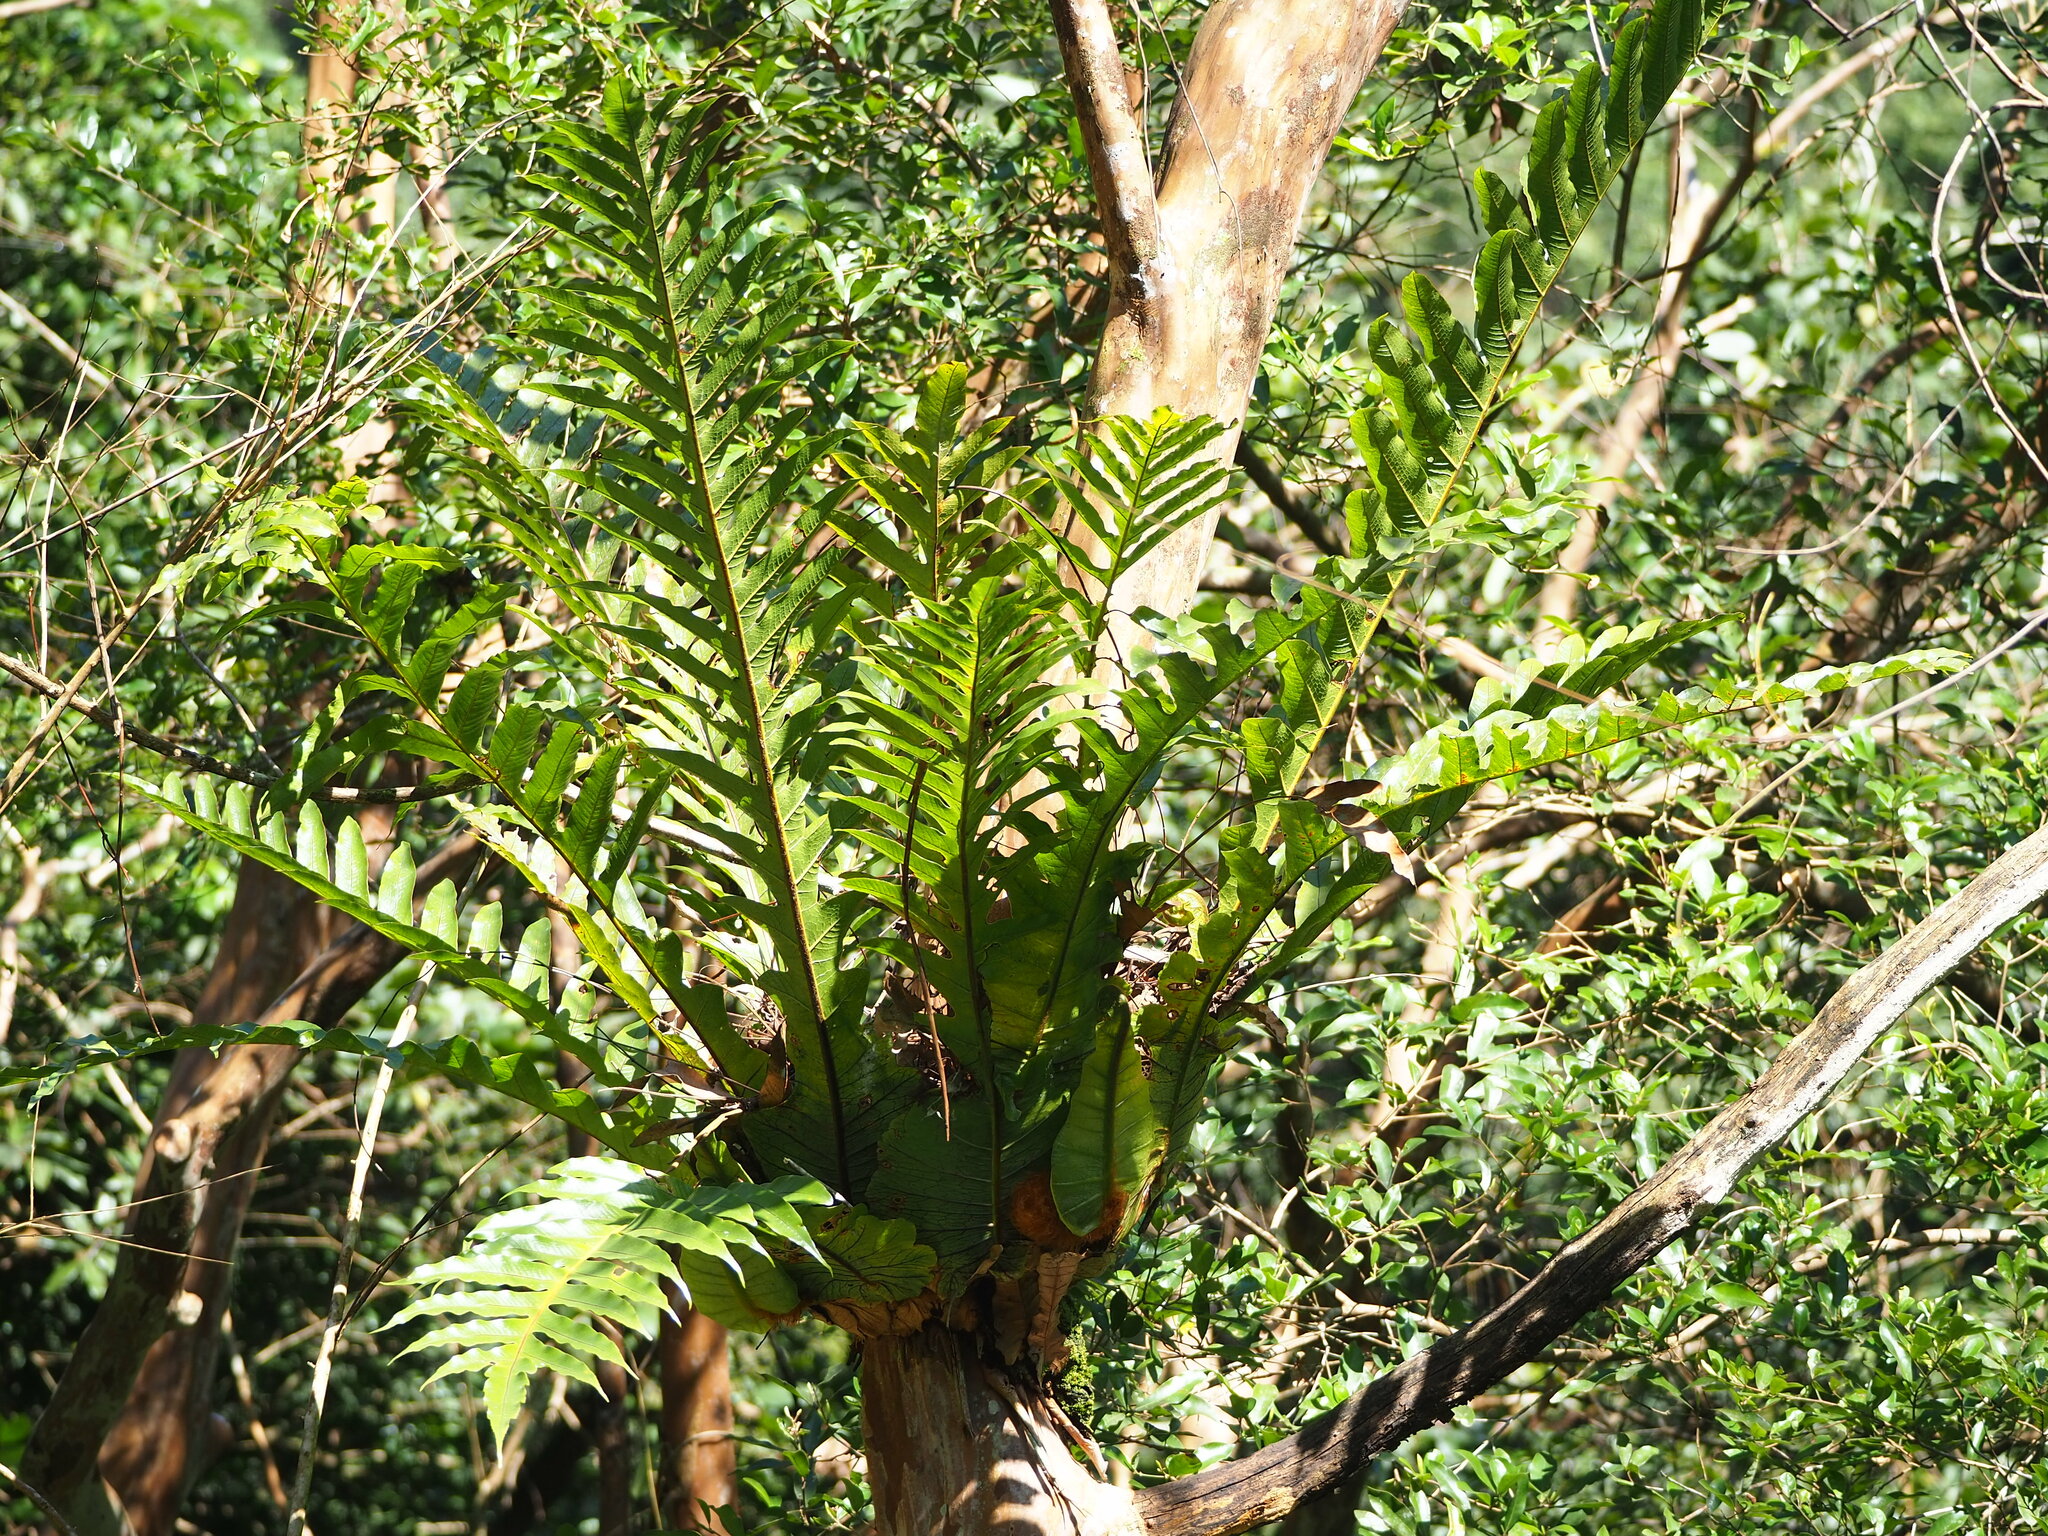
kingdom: Plantae
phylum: Tracheophyta
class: Polypodiopsida
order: Polypodiales
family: Polypodiaceae
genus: Drynaria
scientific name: Drynaria coronans
